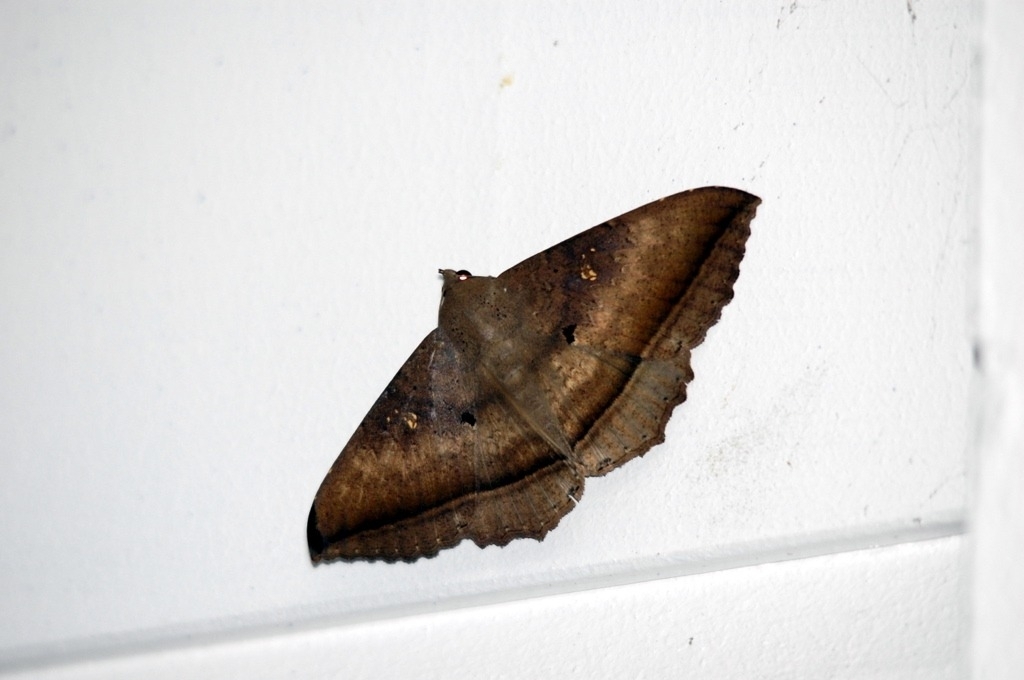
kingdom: Animalia
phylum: Arthropoda
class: Insecta
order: Lepidoptera
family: Erebidae
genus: Hulodes
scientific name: Hulodes caranea
